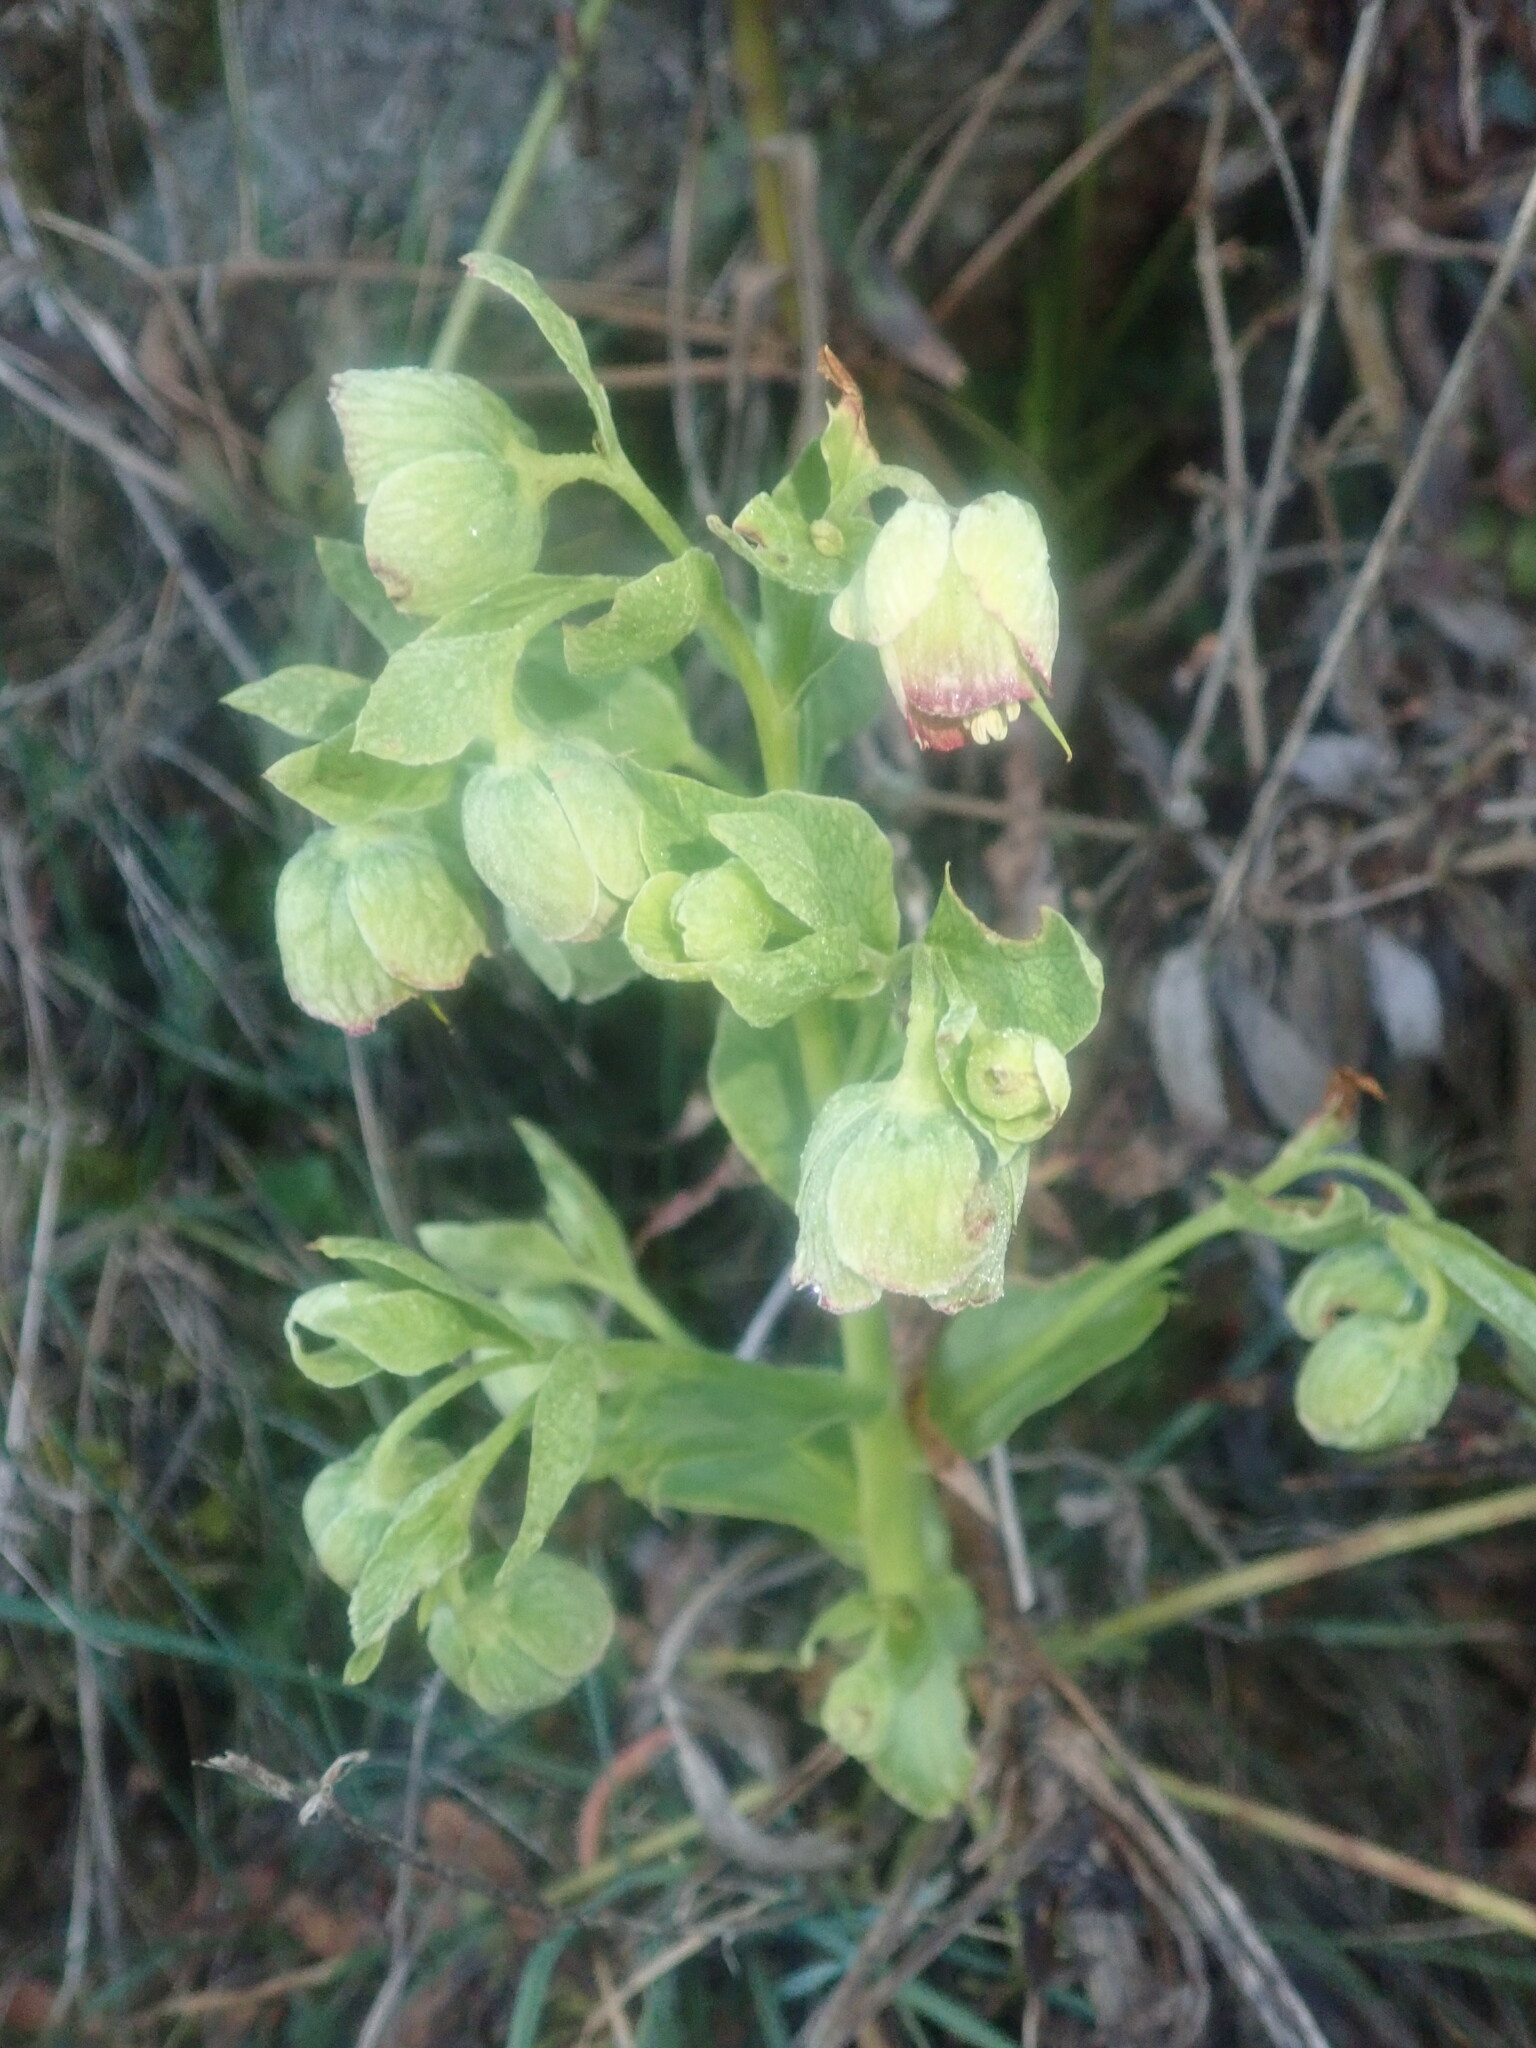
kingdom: Plantae
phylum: Tracheophyta
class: Magnoliopsida
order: Ranunculales
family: Ranunculaceae
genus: Helleborus
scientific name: Helleborus foetidus
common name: Stinking hellebore
